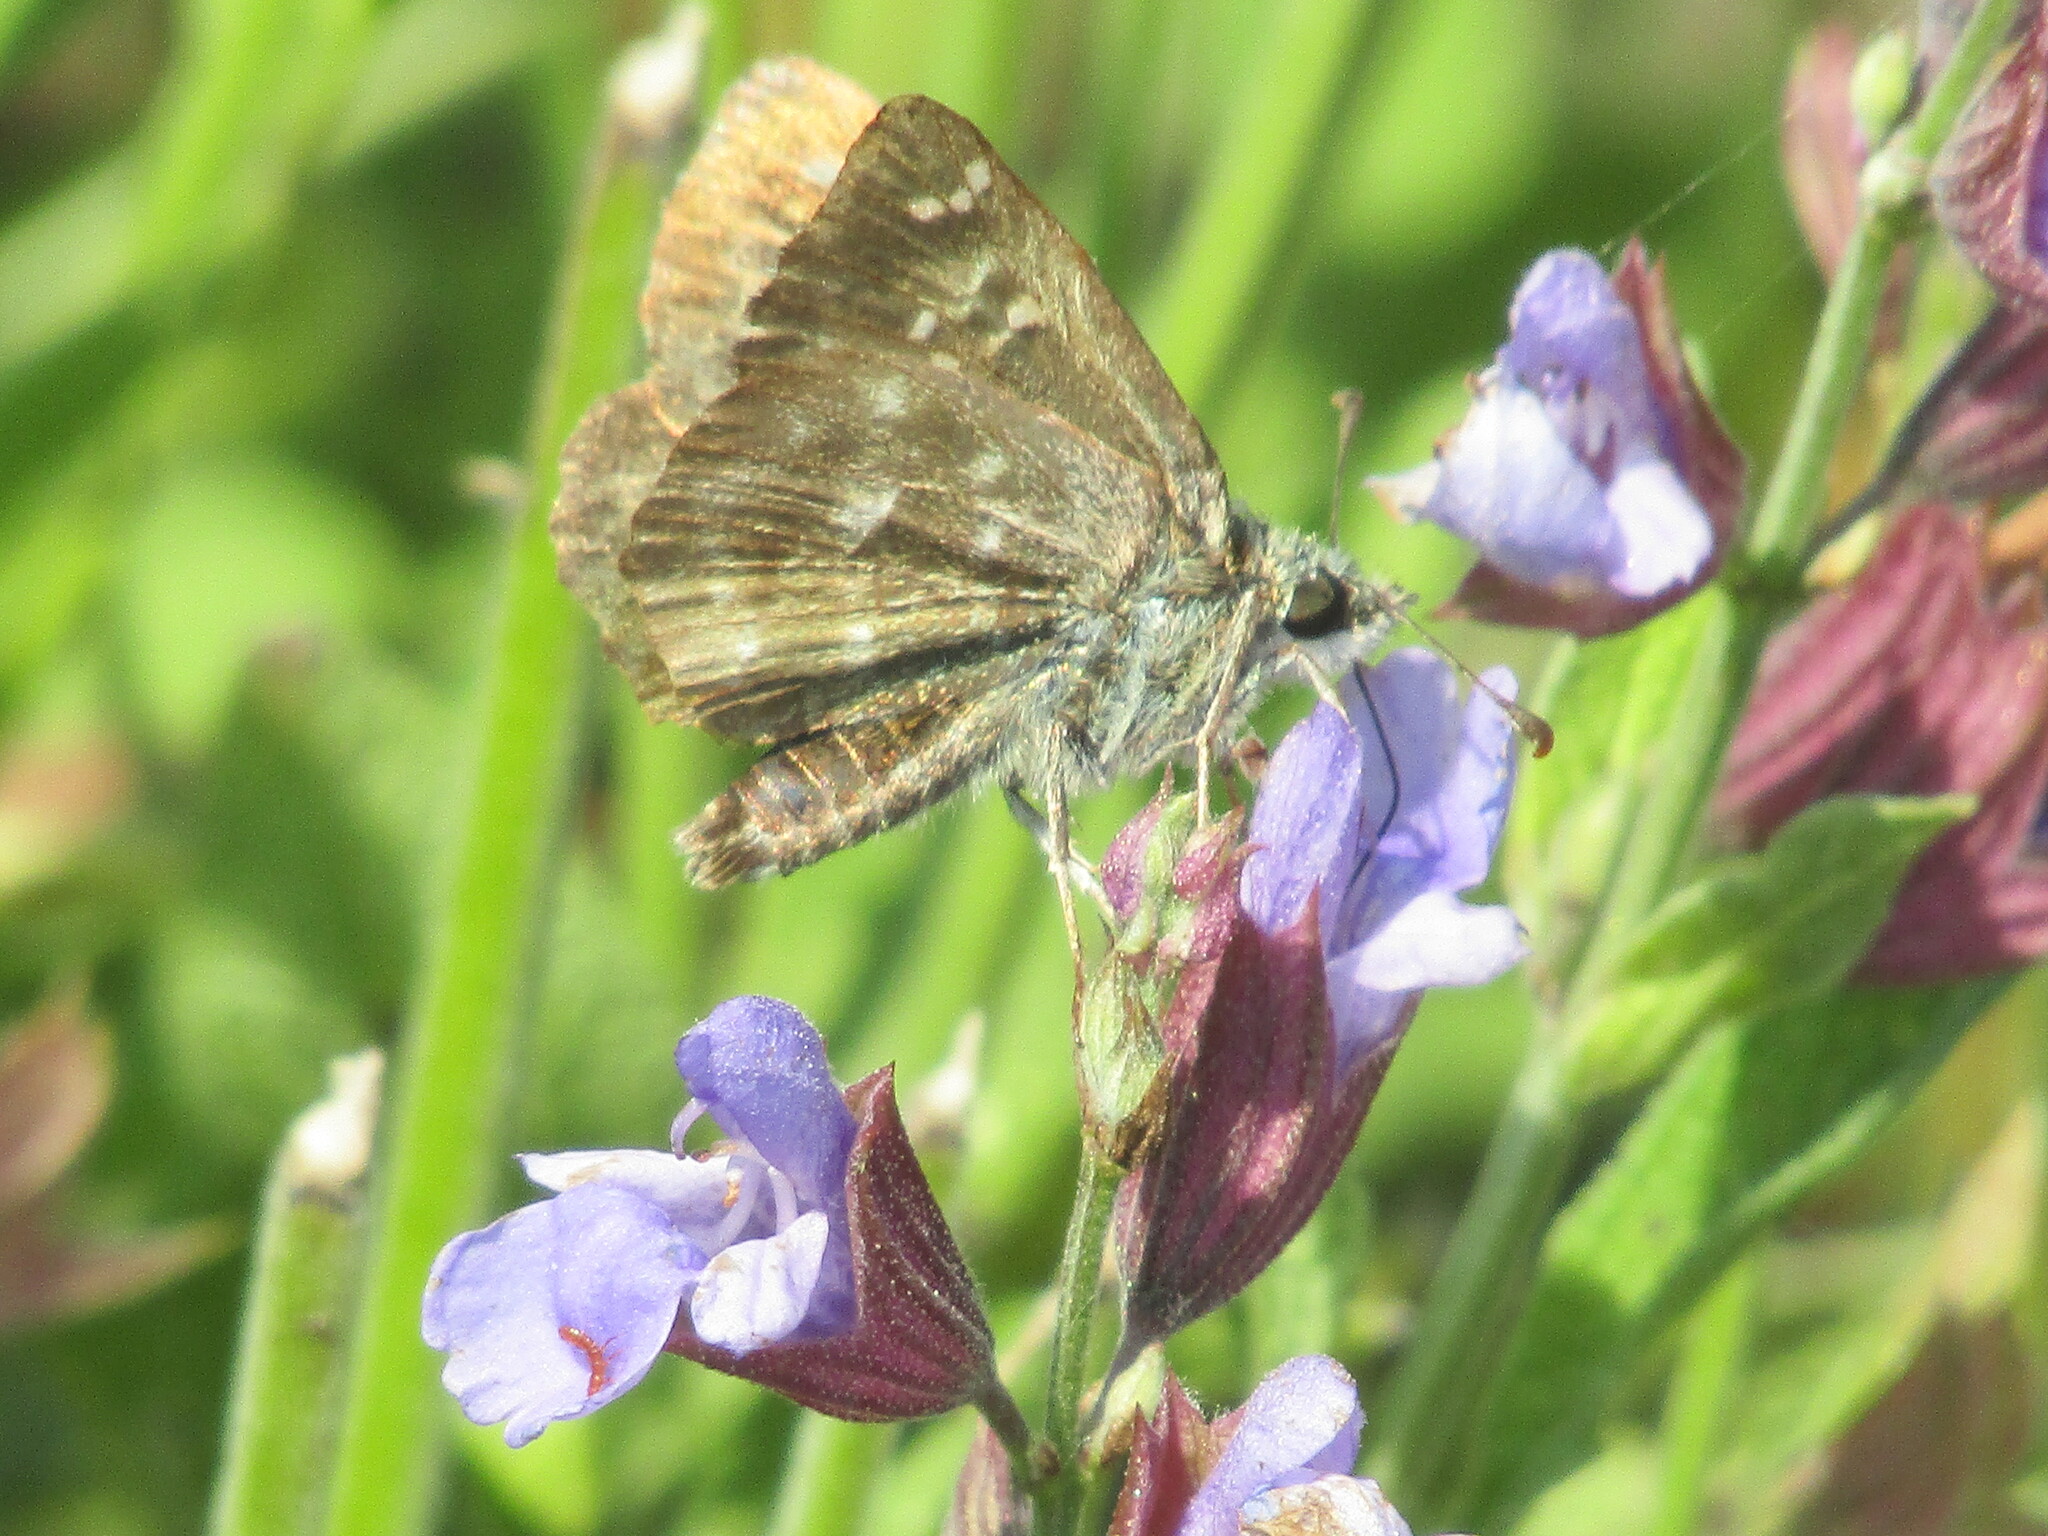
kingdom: Animalia
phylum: Arthropoda
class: Insecta
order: Lepidoptera
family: Hesperiidae
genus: Carcharodus
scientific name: Carcharodus alceae
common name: Mallow skipper
